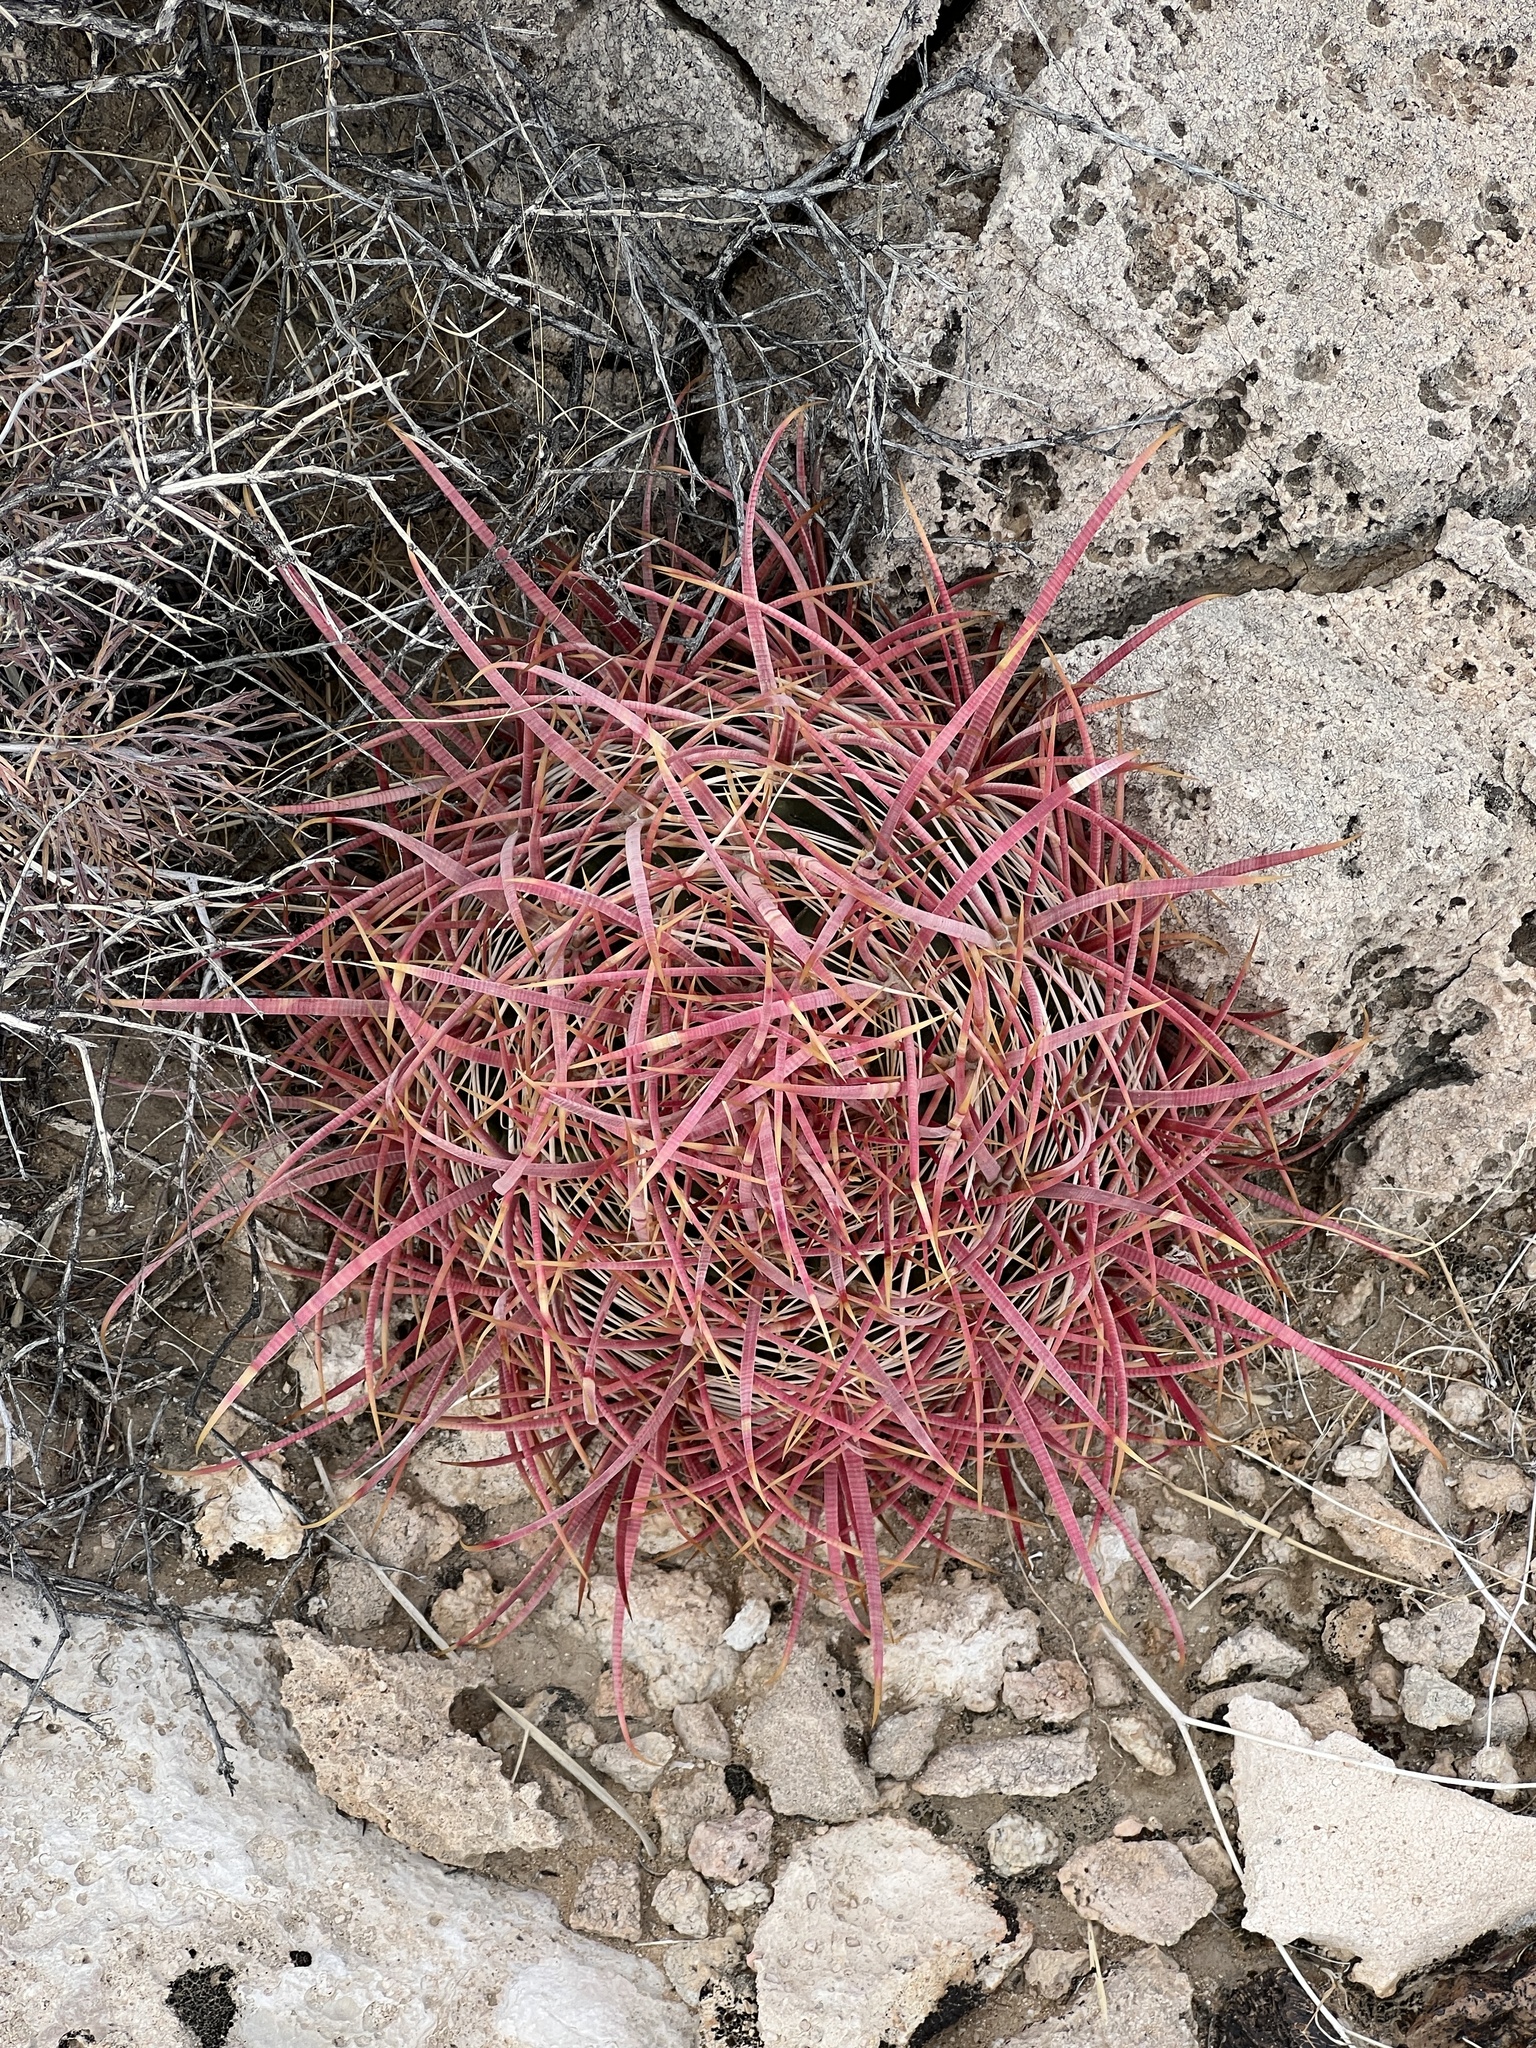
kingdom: Plantae
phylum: Tracheophyta
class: Magnoliopsida
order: Caryophyllales
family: Cactaceae
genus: Ferocactus
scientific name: Ferocactus cylindraceus
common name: California barrel cactus
